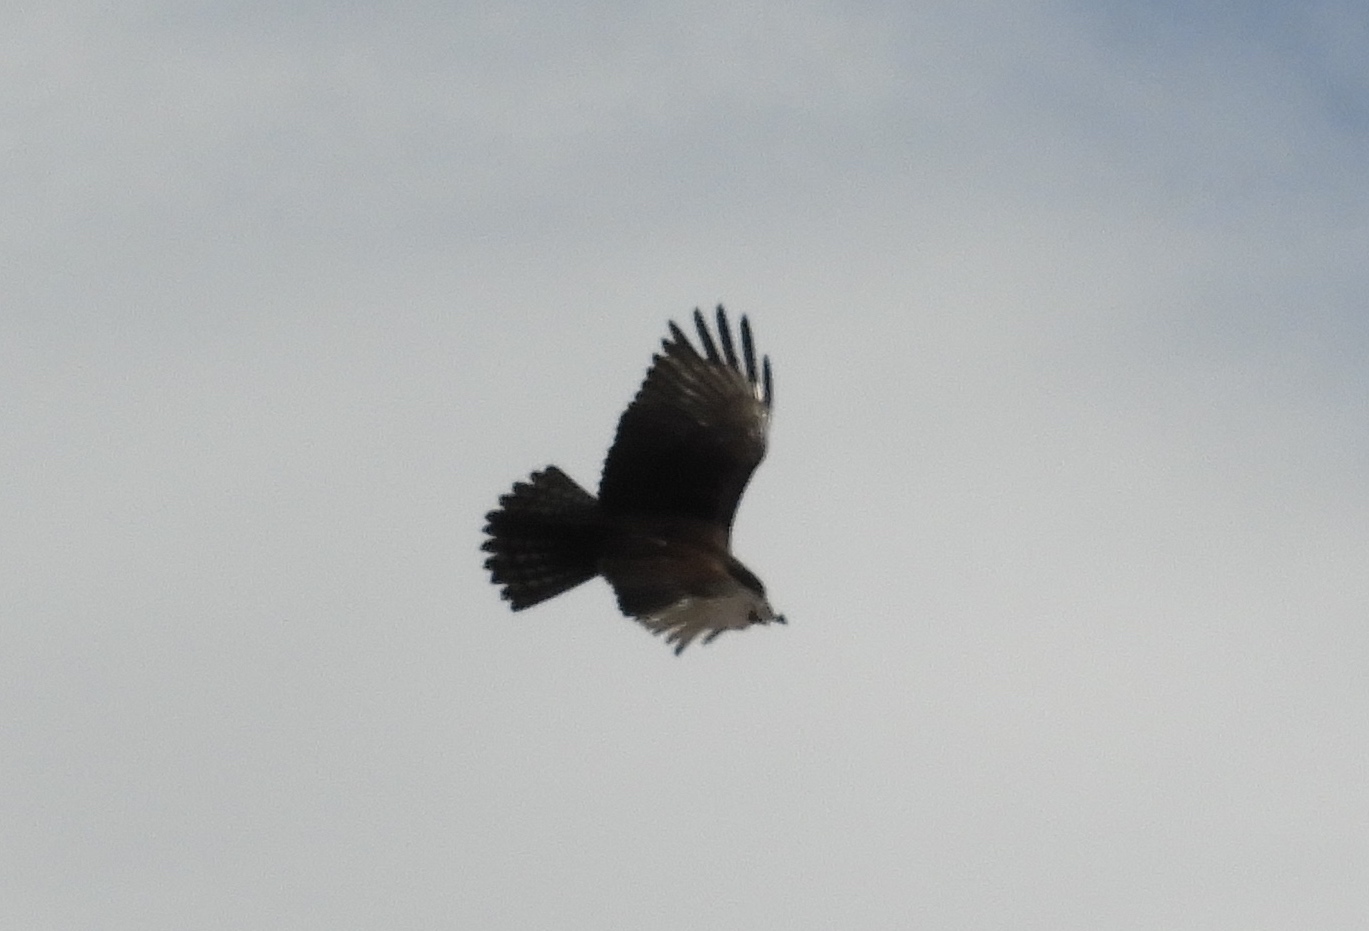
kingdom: Animalia
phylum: Chordata
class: Aves
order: Accipitriformes
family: Accipitridae
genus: Buteo
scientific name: Buteo albonotatus
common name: Zone-tailed hawk
